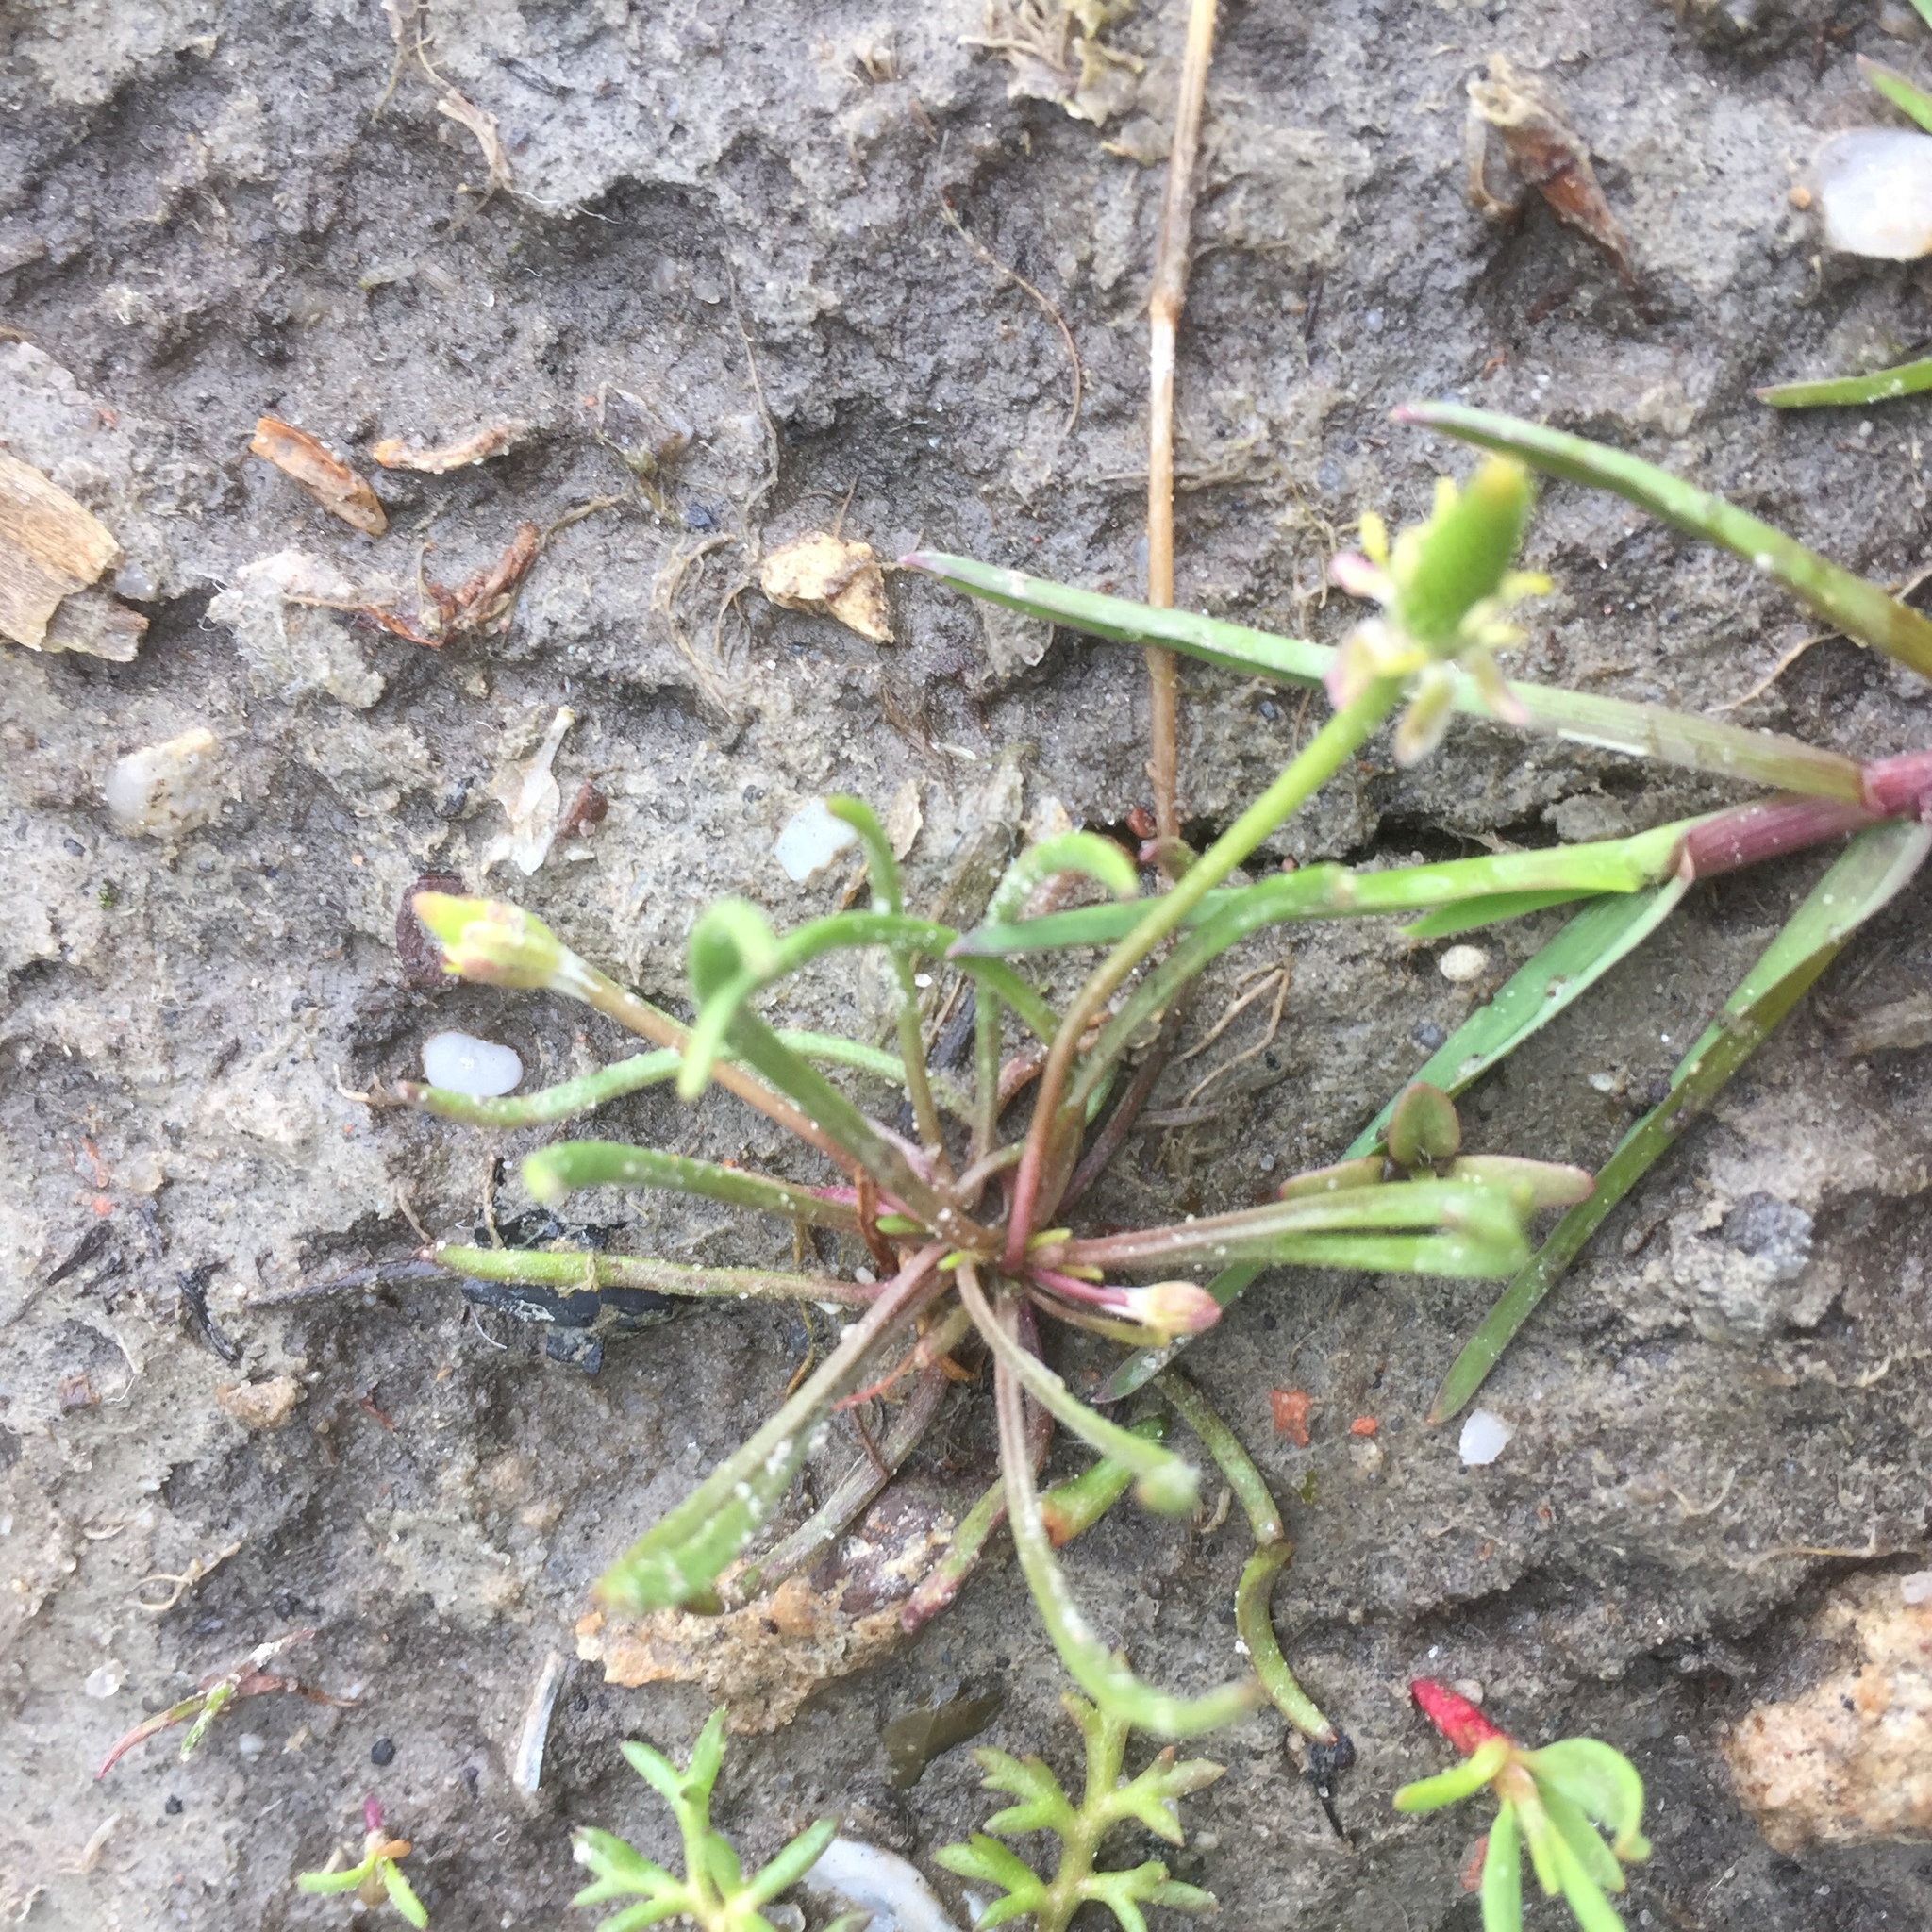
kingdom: Plantae
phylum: Tracheophyta
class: Magnoliopsida
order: Ranunculales
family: Ranunculaceae
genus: Myosurus
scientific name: Myosurus minimus
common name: Mousetail
